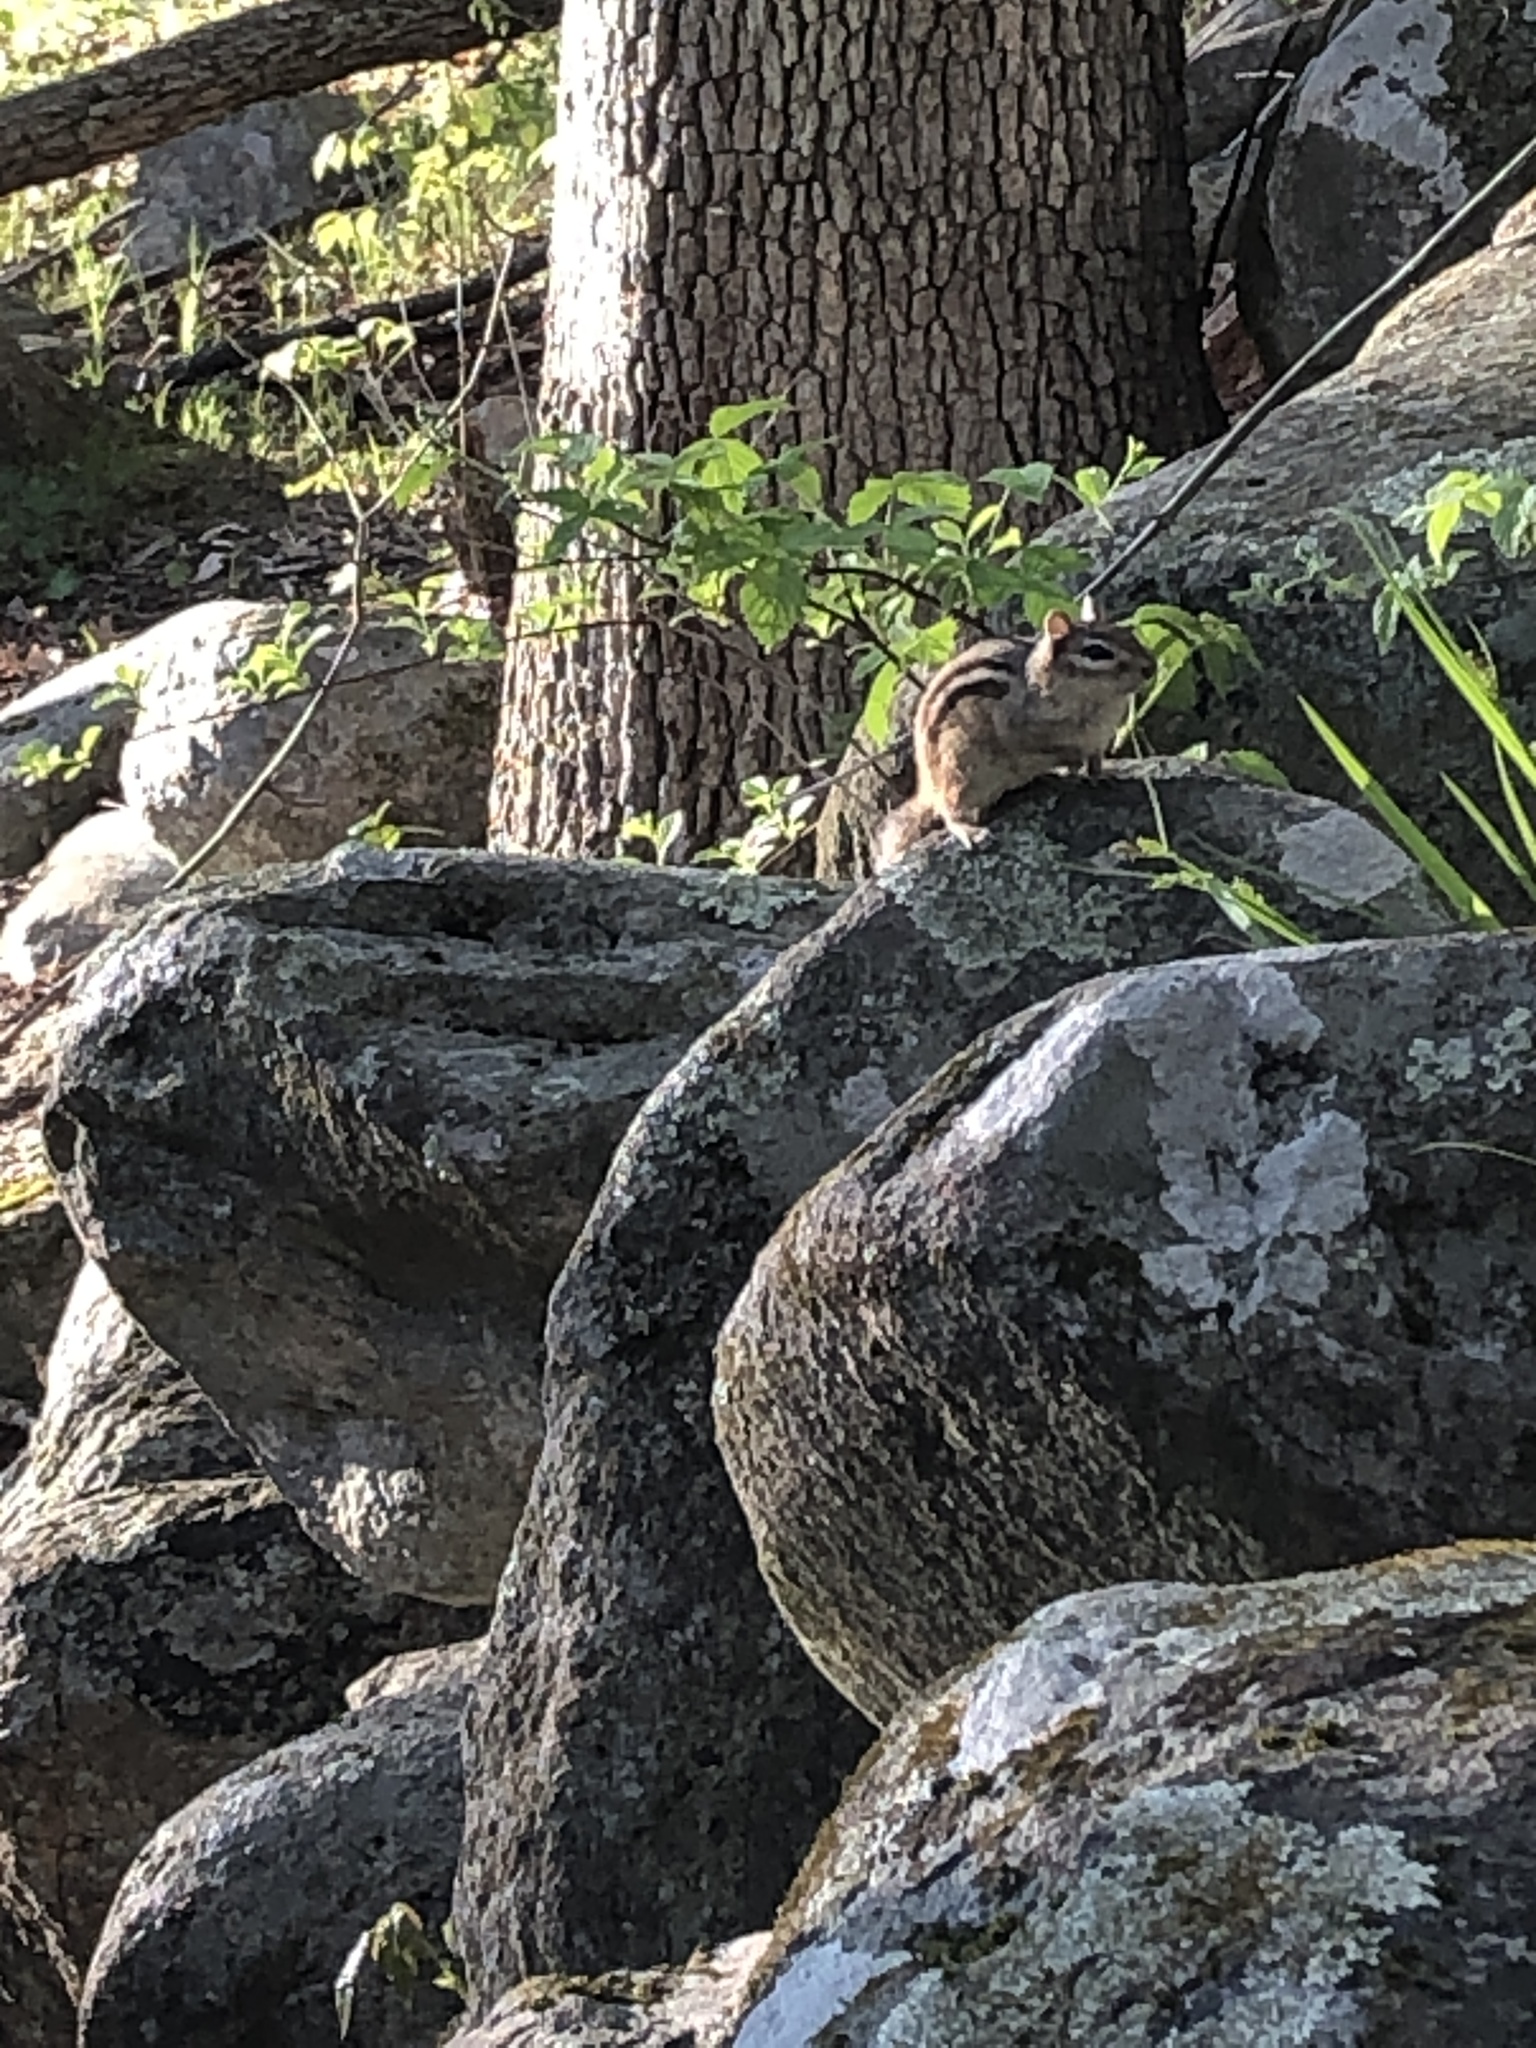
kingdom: Animalia
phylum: Chordata
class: Mammalia
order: Rodentia
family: Sciuridae
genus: Tamias
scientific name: Tamias striatus
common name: Eastern chipmunk
